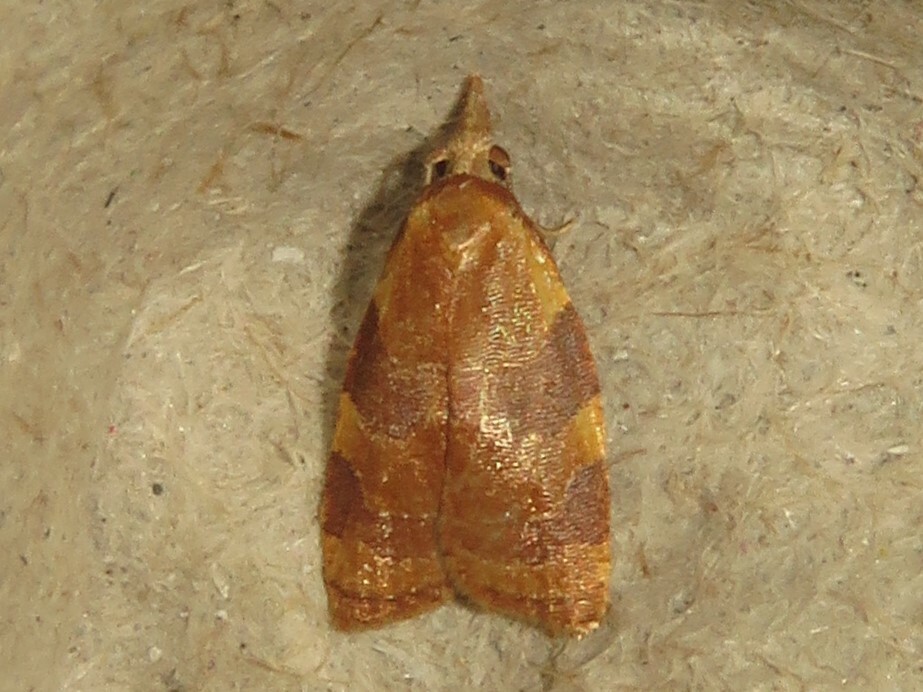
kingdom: Animalia
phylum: Arthropoda
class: Insecta
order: Lepidoptera
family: Tortricidae
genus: Cenopis
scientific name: Cenopis diluticostana
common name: Spring dead-leaf roller moth
